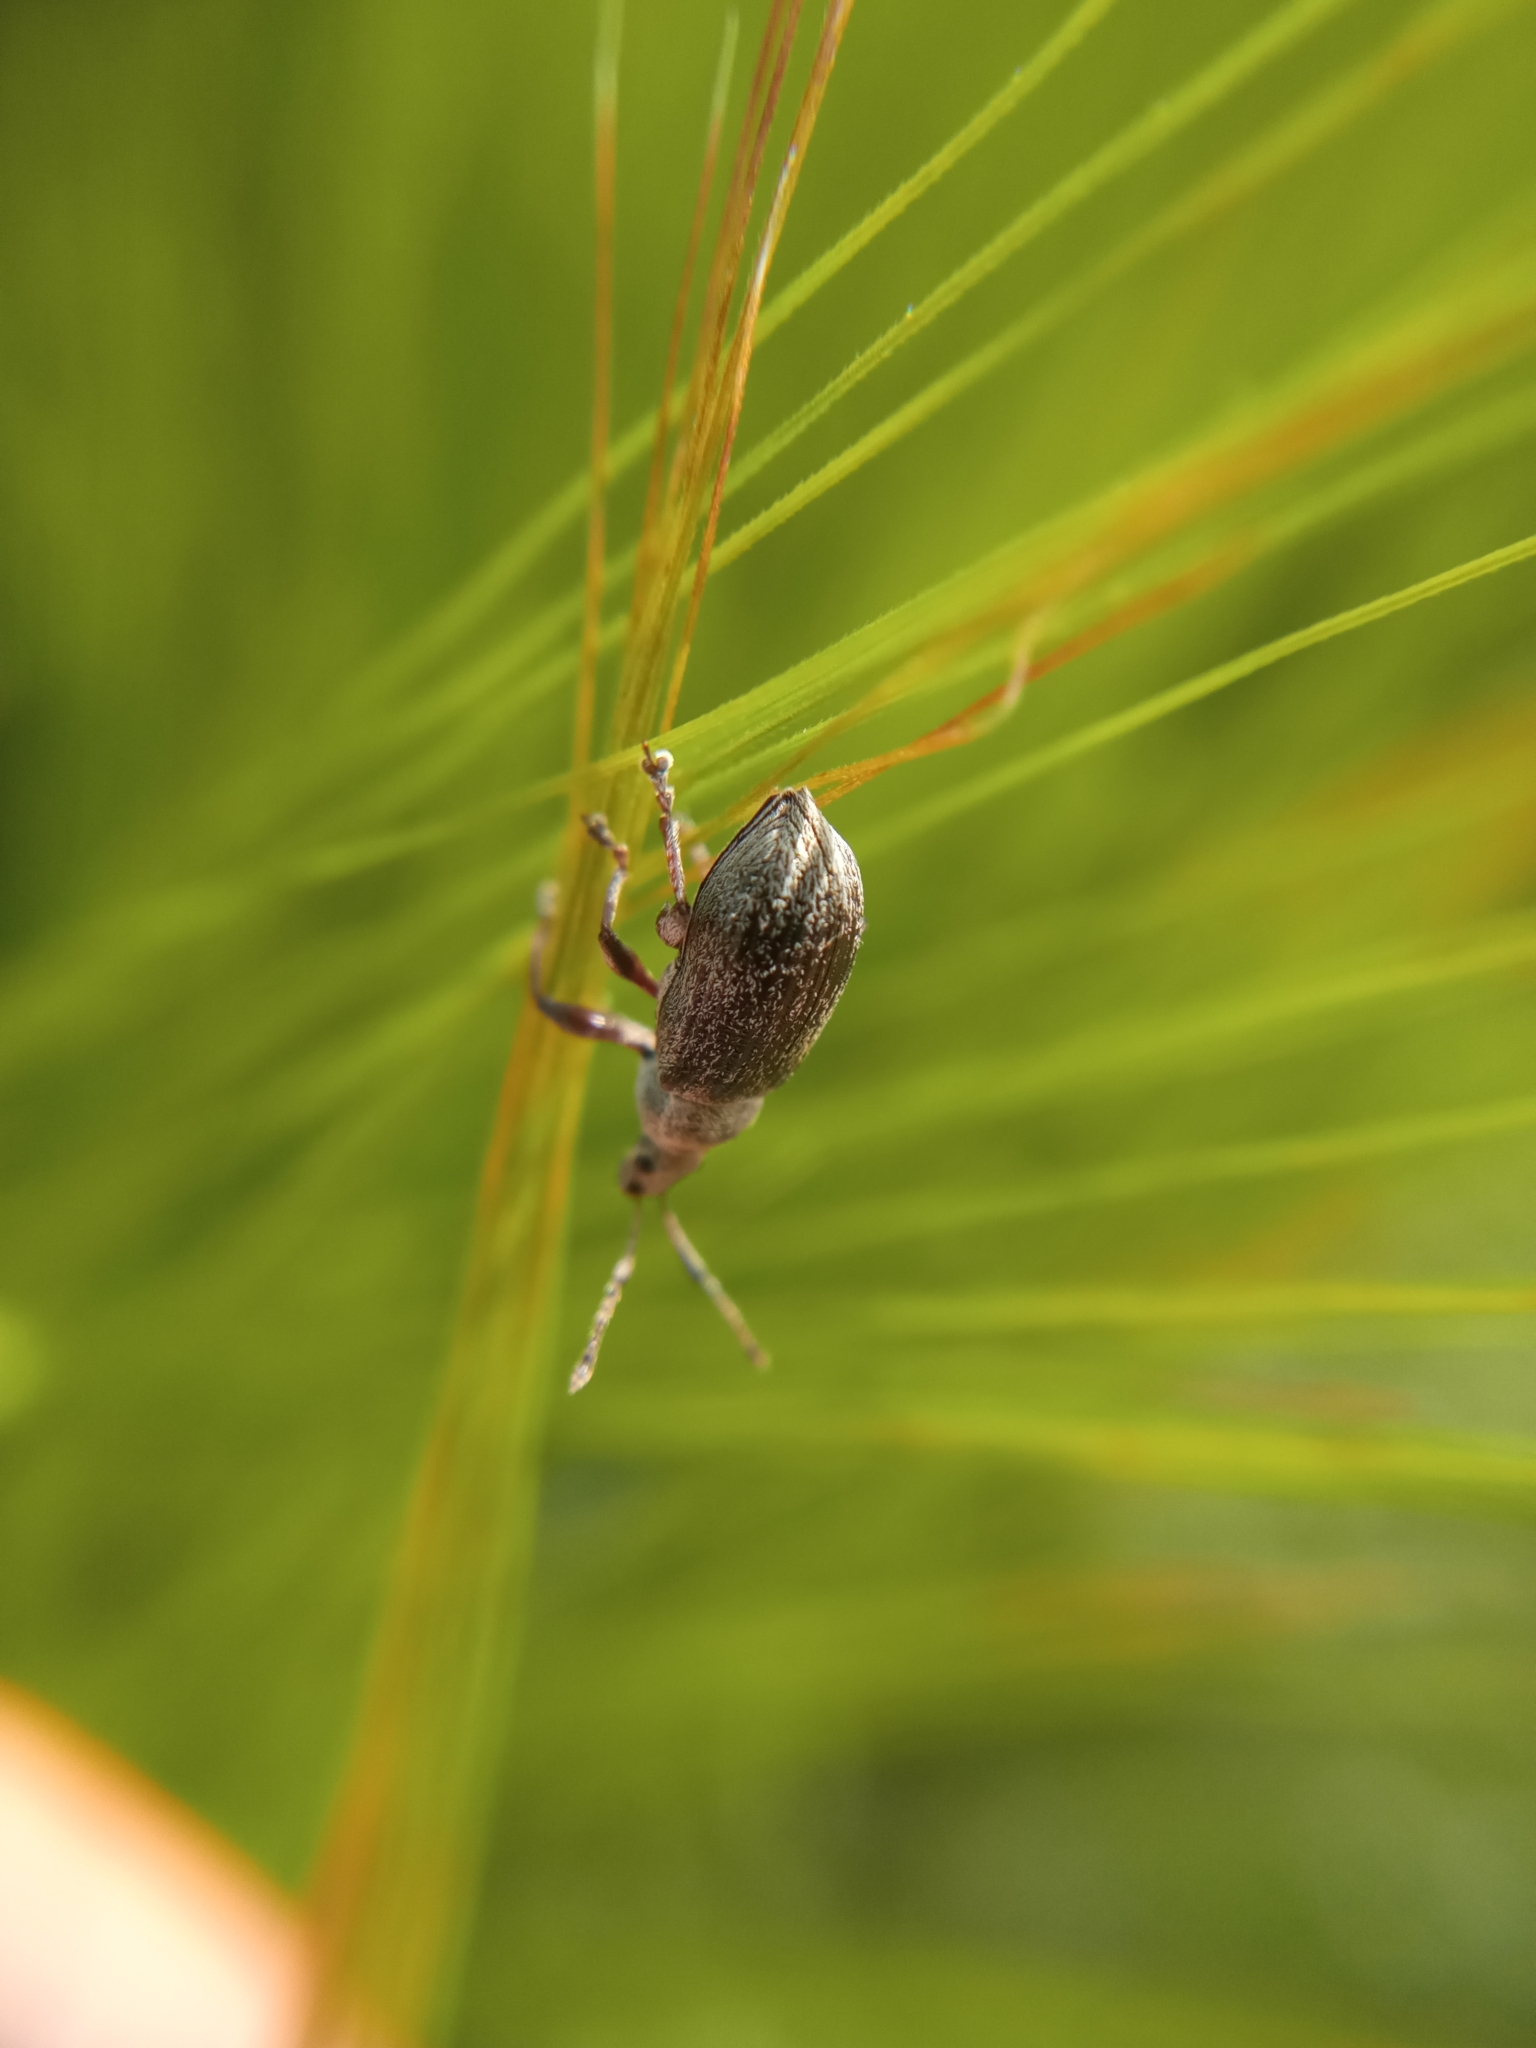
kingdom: Animalia
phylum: Arthropoda
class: Insecta
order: Coleoptera
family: Curculionidae
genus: Phyllobius
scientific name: Phyllobius pyri
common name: Common leaf weevil
